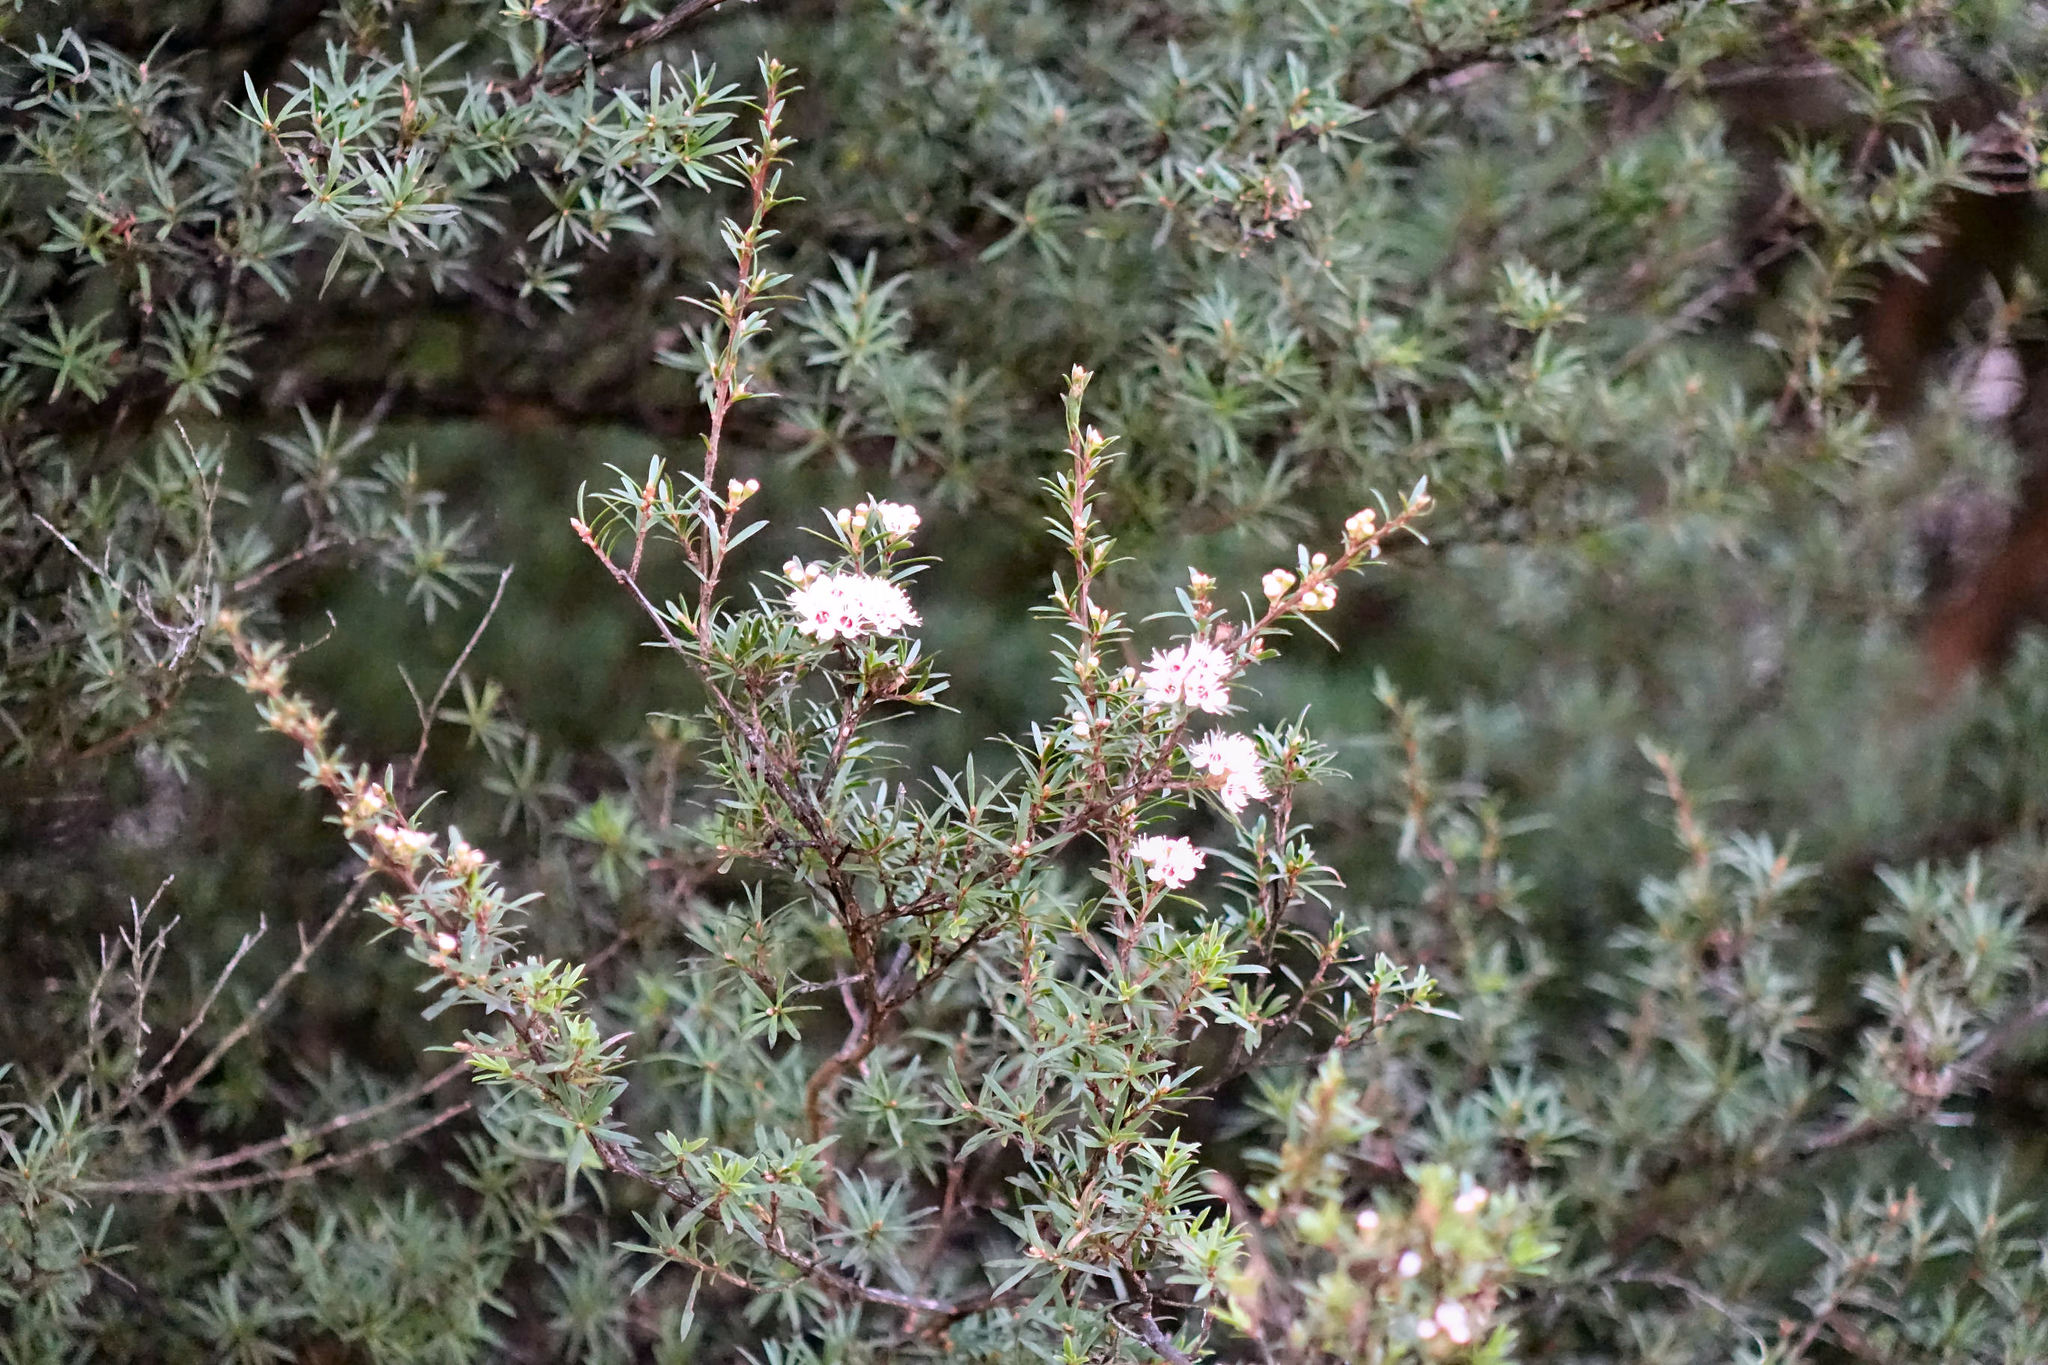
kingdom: Plantae
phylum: Tracheophyta
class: Magnoliopsida
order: Myrtales
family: Myrtaceae
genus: Kunzea
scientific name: Kunzea robusta
